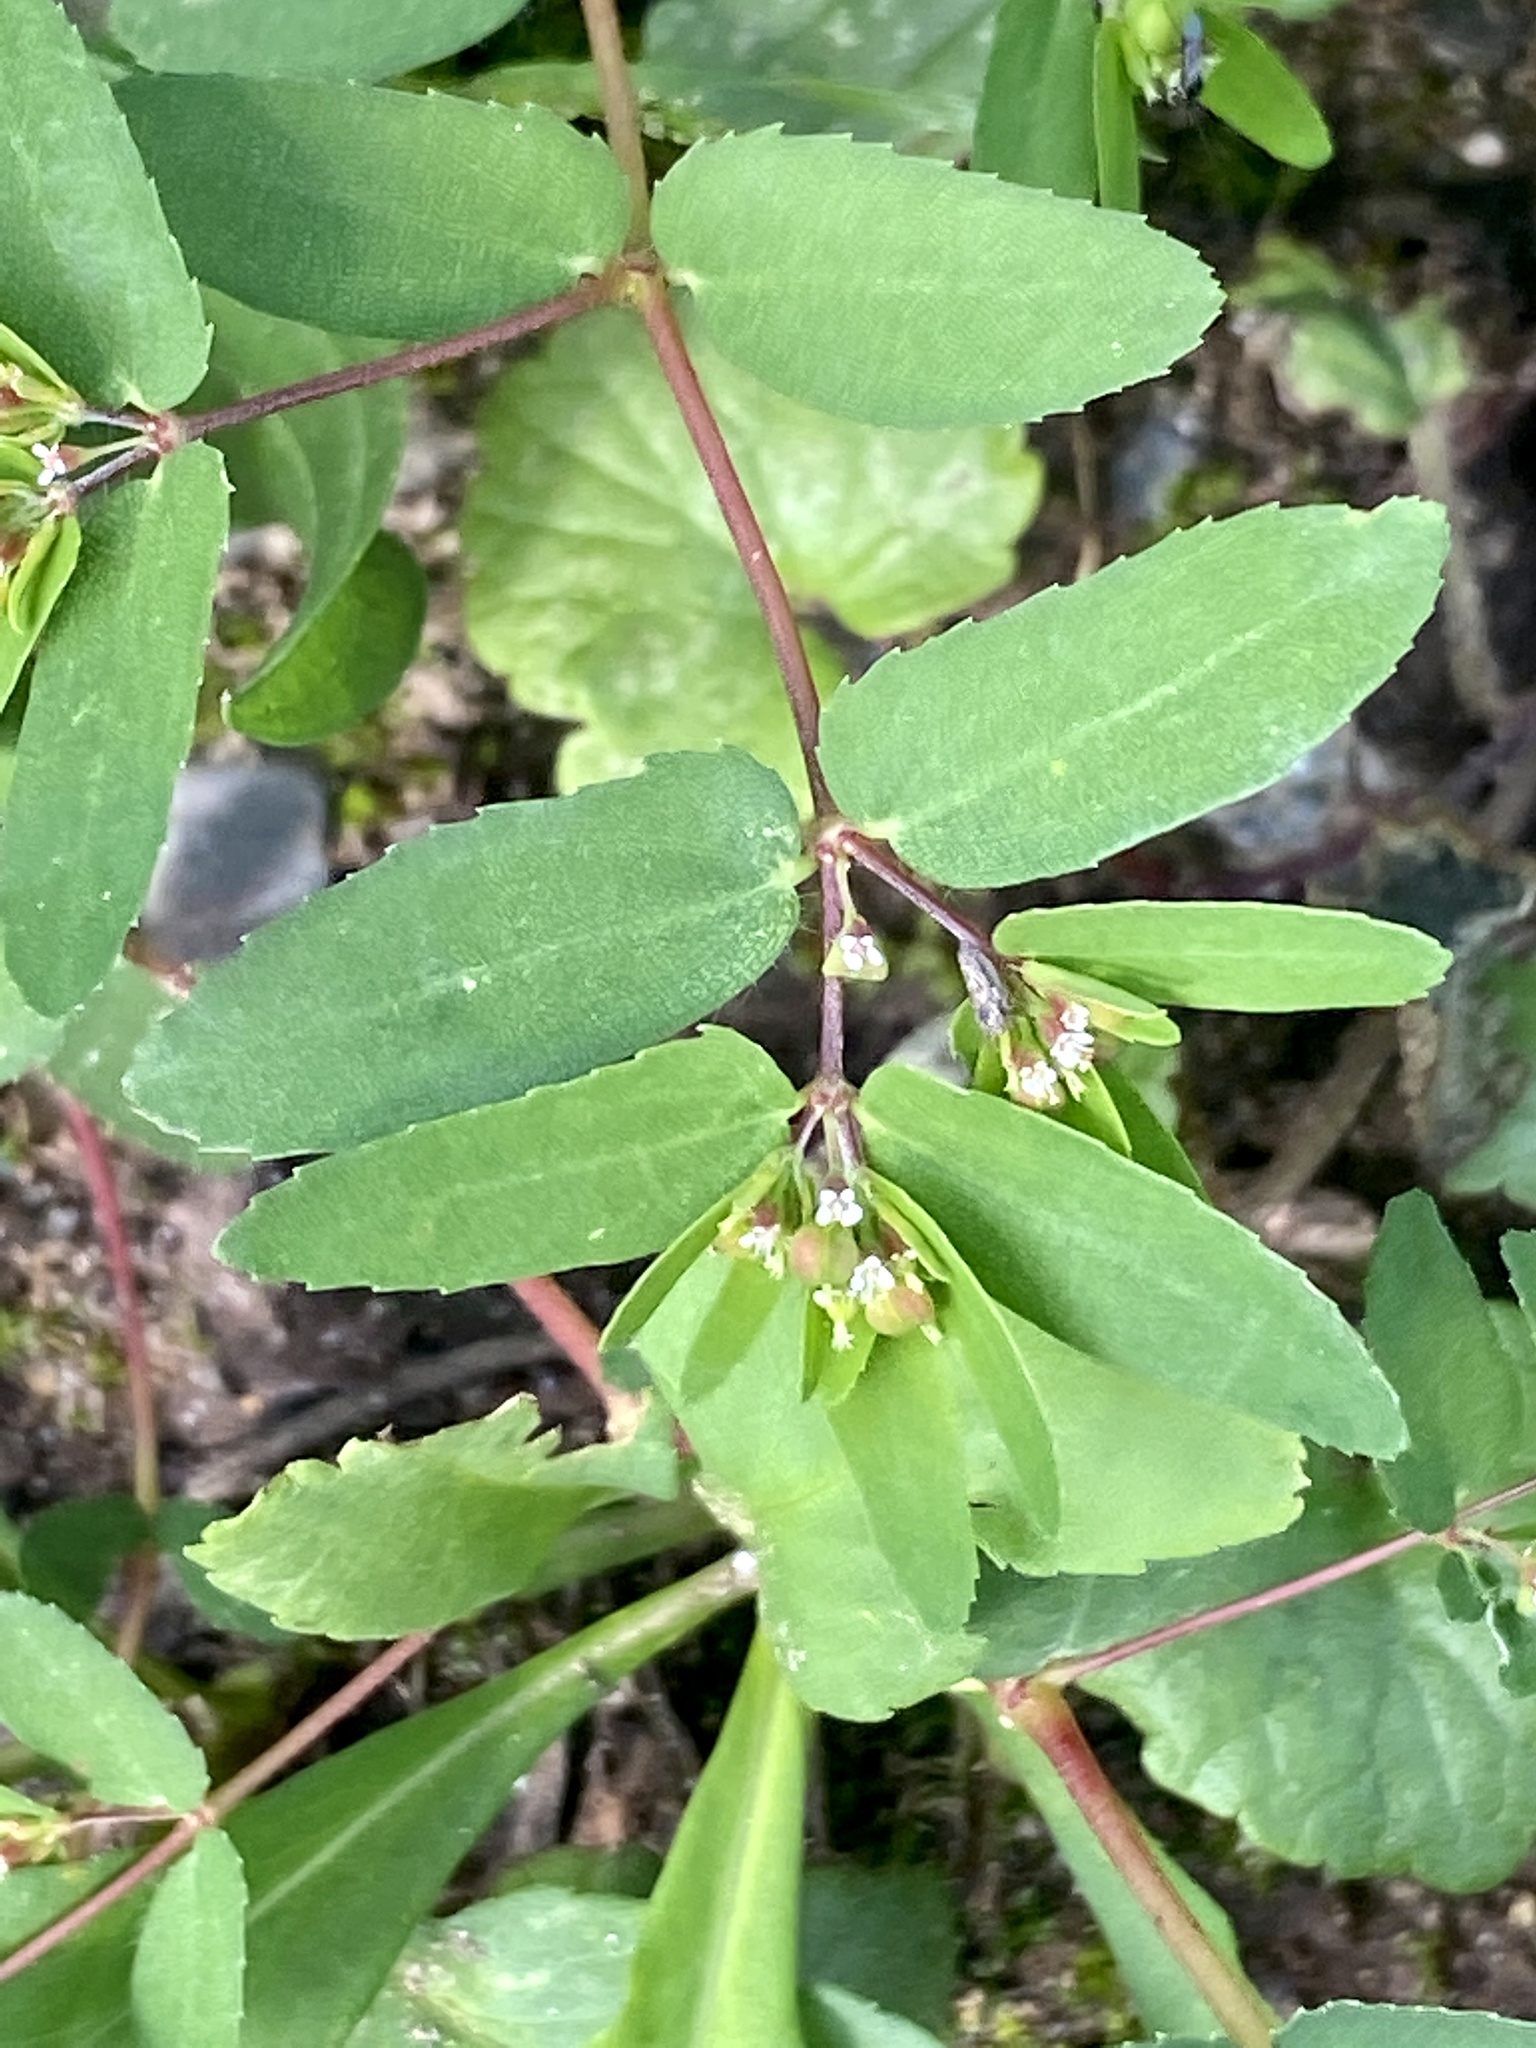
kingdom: Plantae
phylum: Tracheophyta
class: Magnoliopsida
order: Malpighiales
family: Euphorbiaceae
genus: Euphorbia
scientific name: Euphorbia nutans
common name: Eyebane
